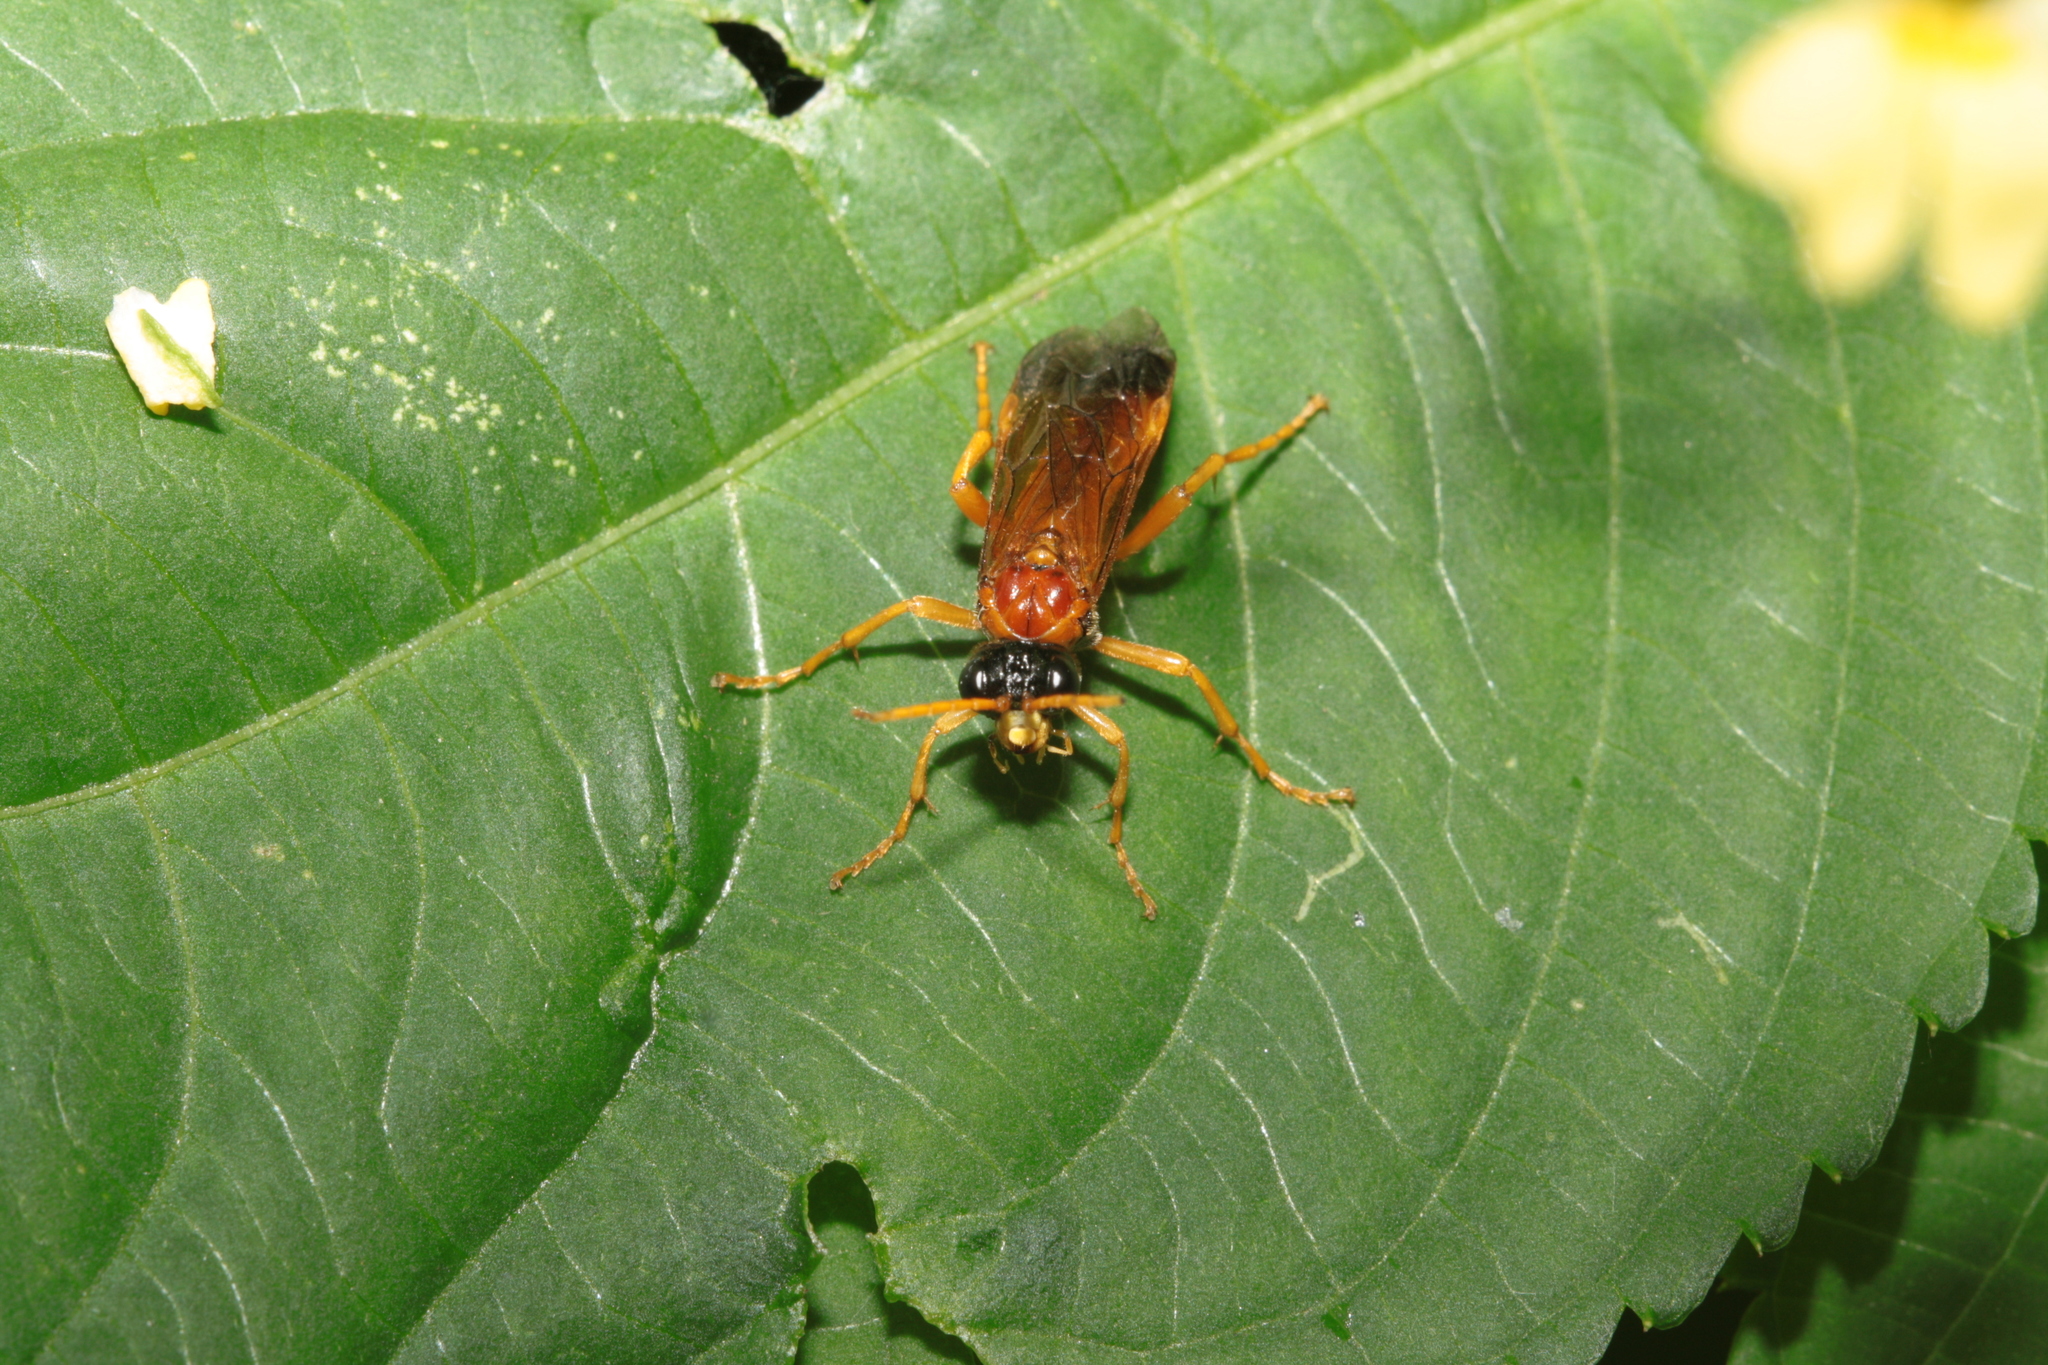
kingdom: Animalia
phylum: Arthropoda
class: Insecta
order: Hymenoptera
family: Tenthredinidae
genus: Tenthredo
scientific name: Tenthredo campestris
